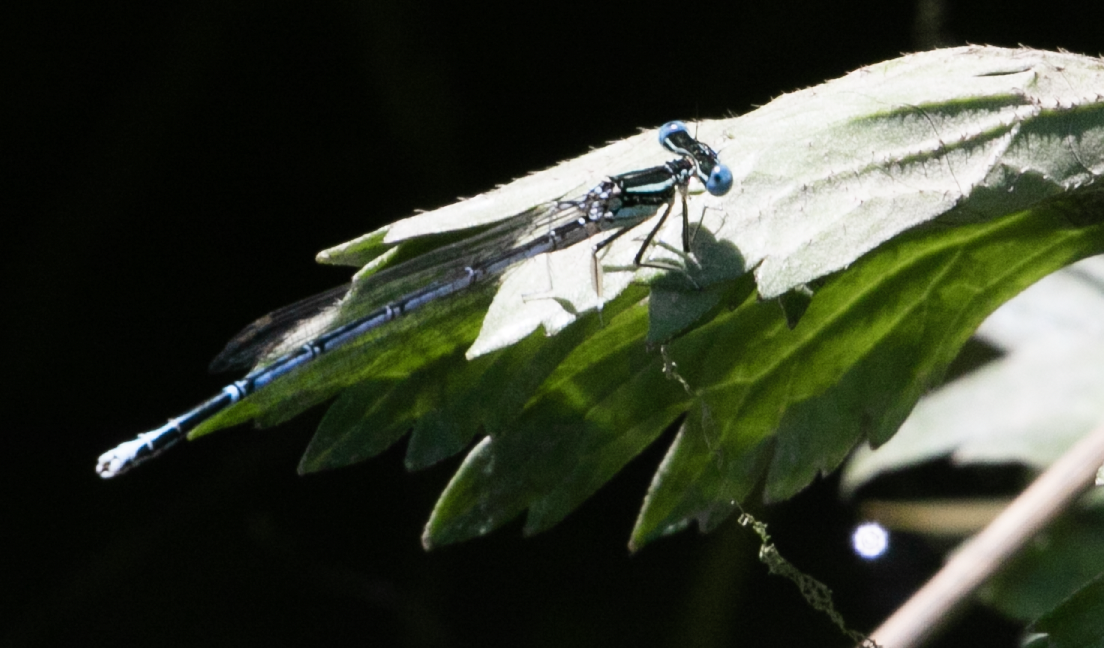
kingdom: Animalia
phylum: Arthropoda
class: Insecta
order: Odonata
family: Platycnemididae
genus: Platycnemis
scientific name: Platycnemis pennipes
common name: White-legged damselfly
